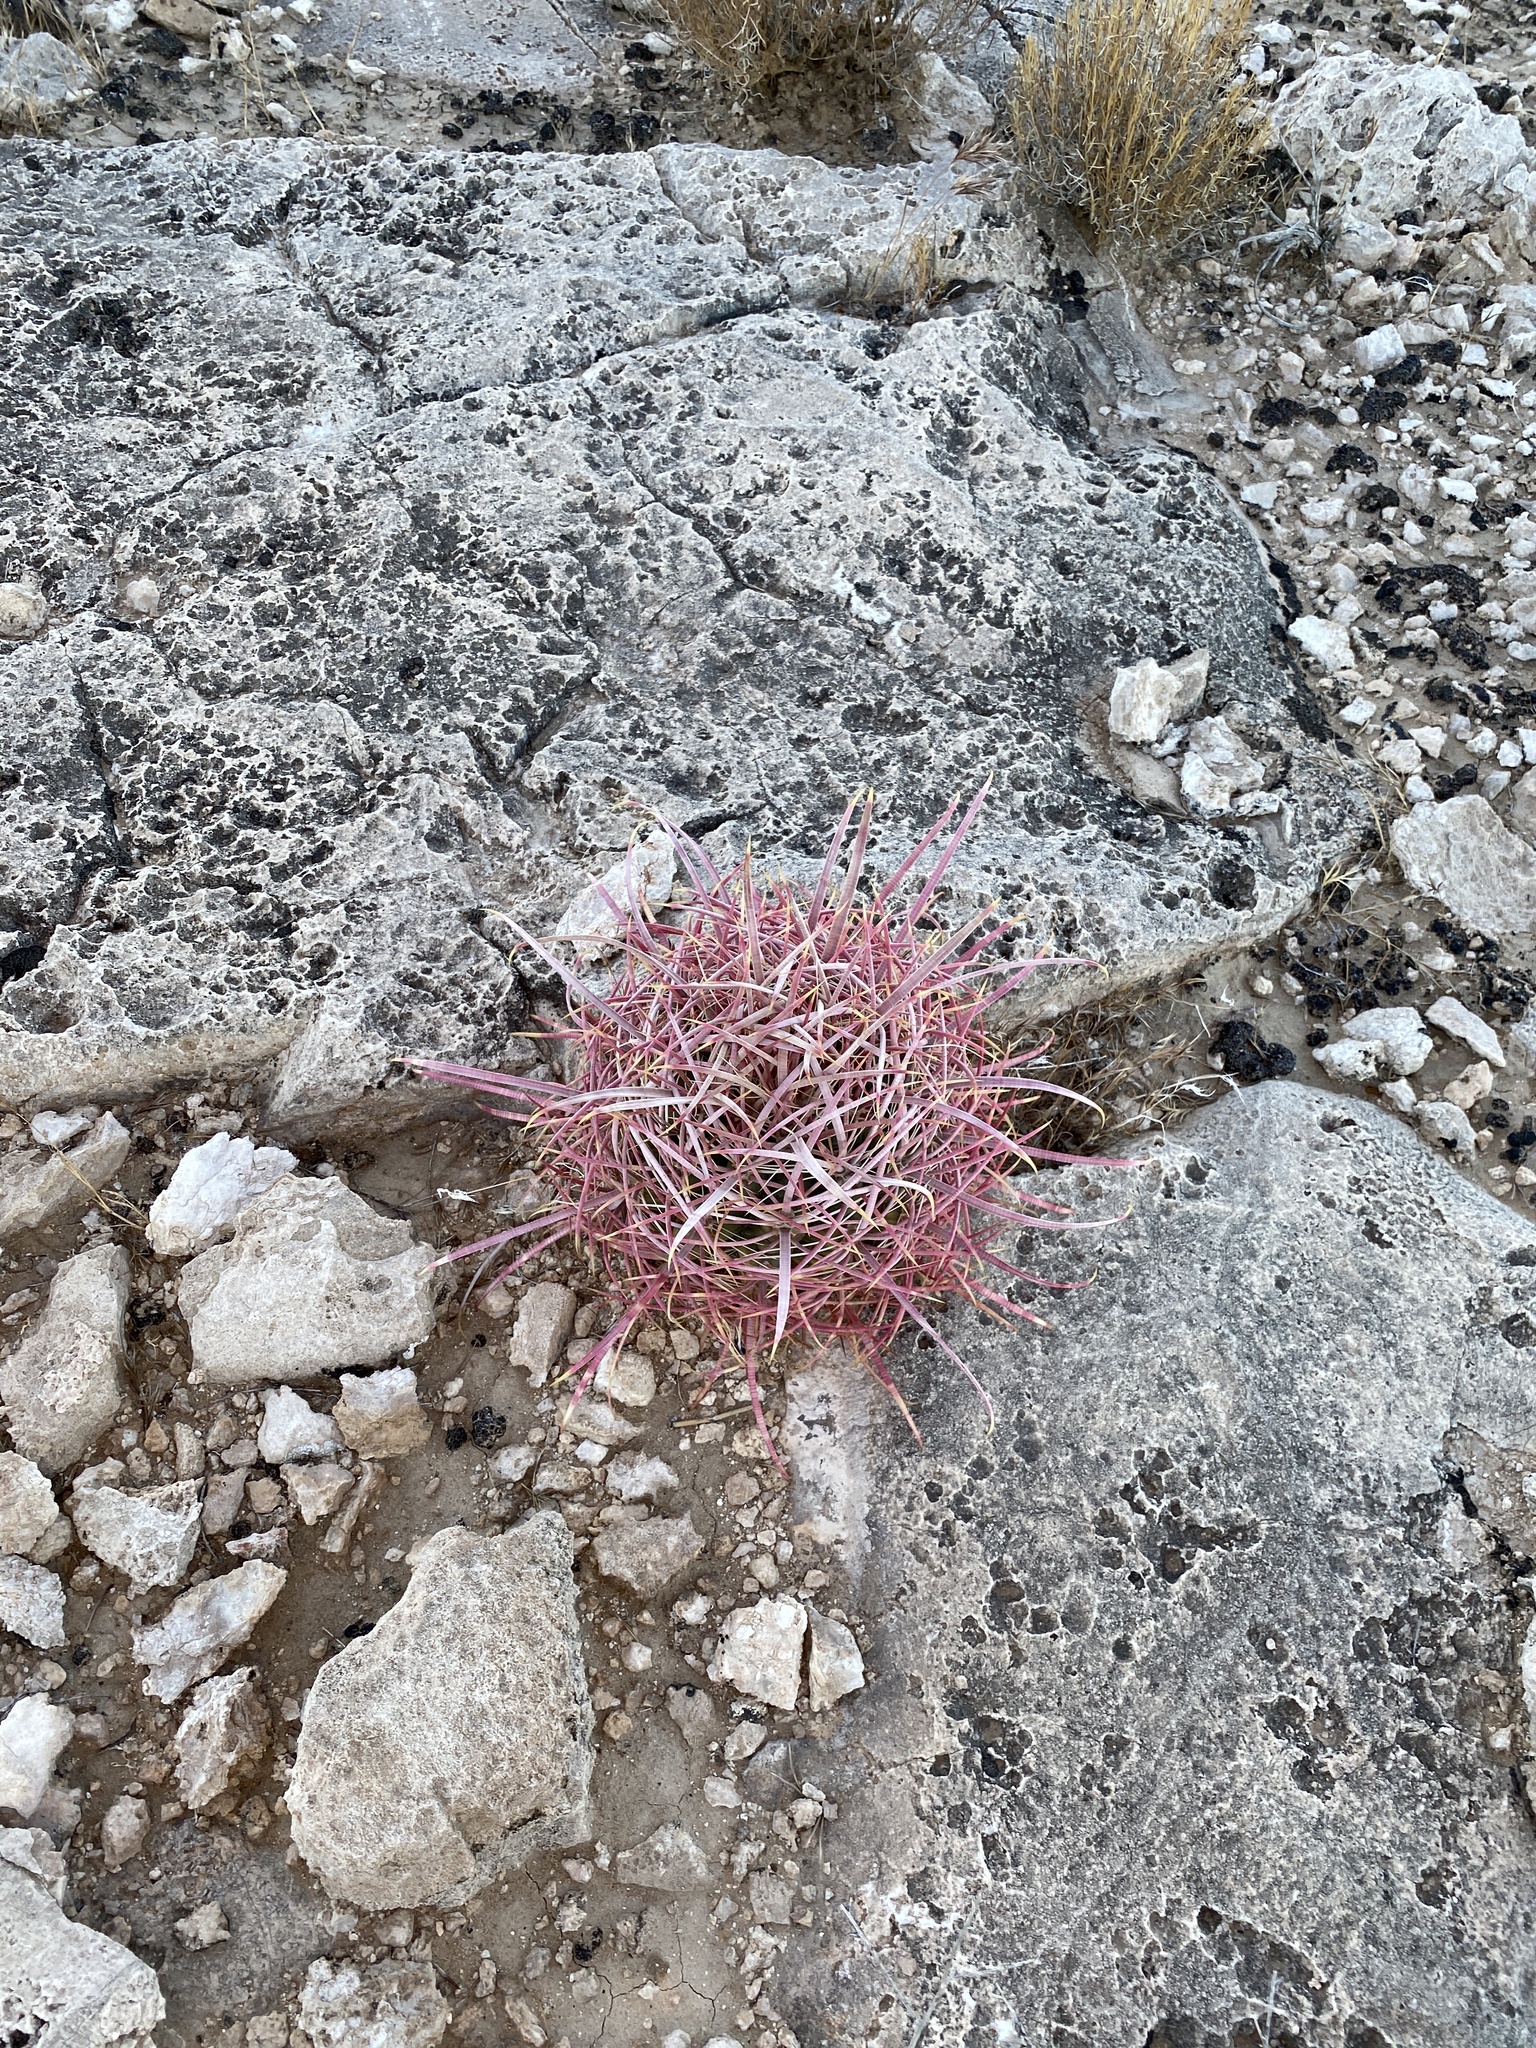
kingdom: Plantae
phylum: Tracheophyta
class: Magnoliopsida
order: Caryophyllales
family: Cactaceae
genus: Ferocactus
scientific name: Ferocactus cylindraceus
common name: California barrel cactus
